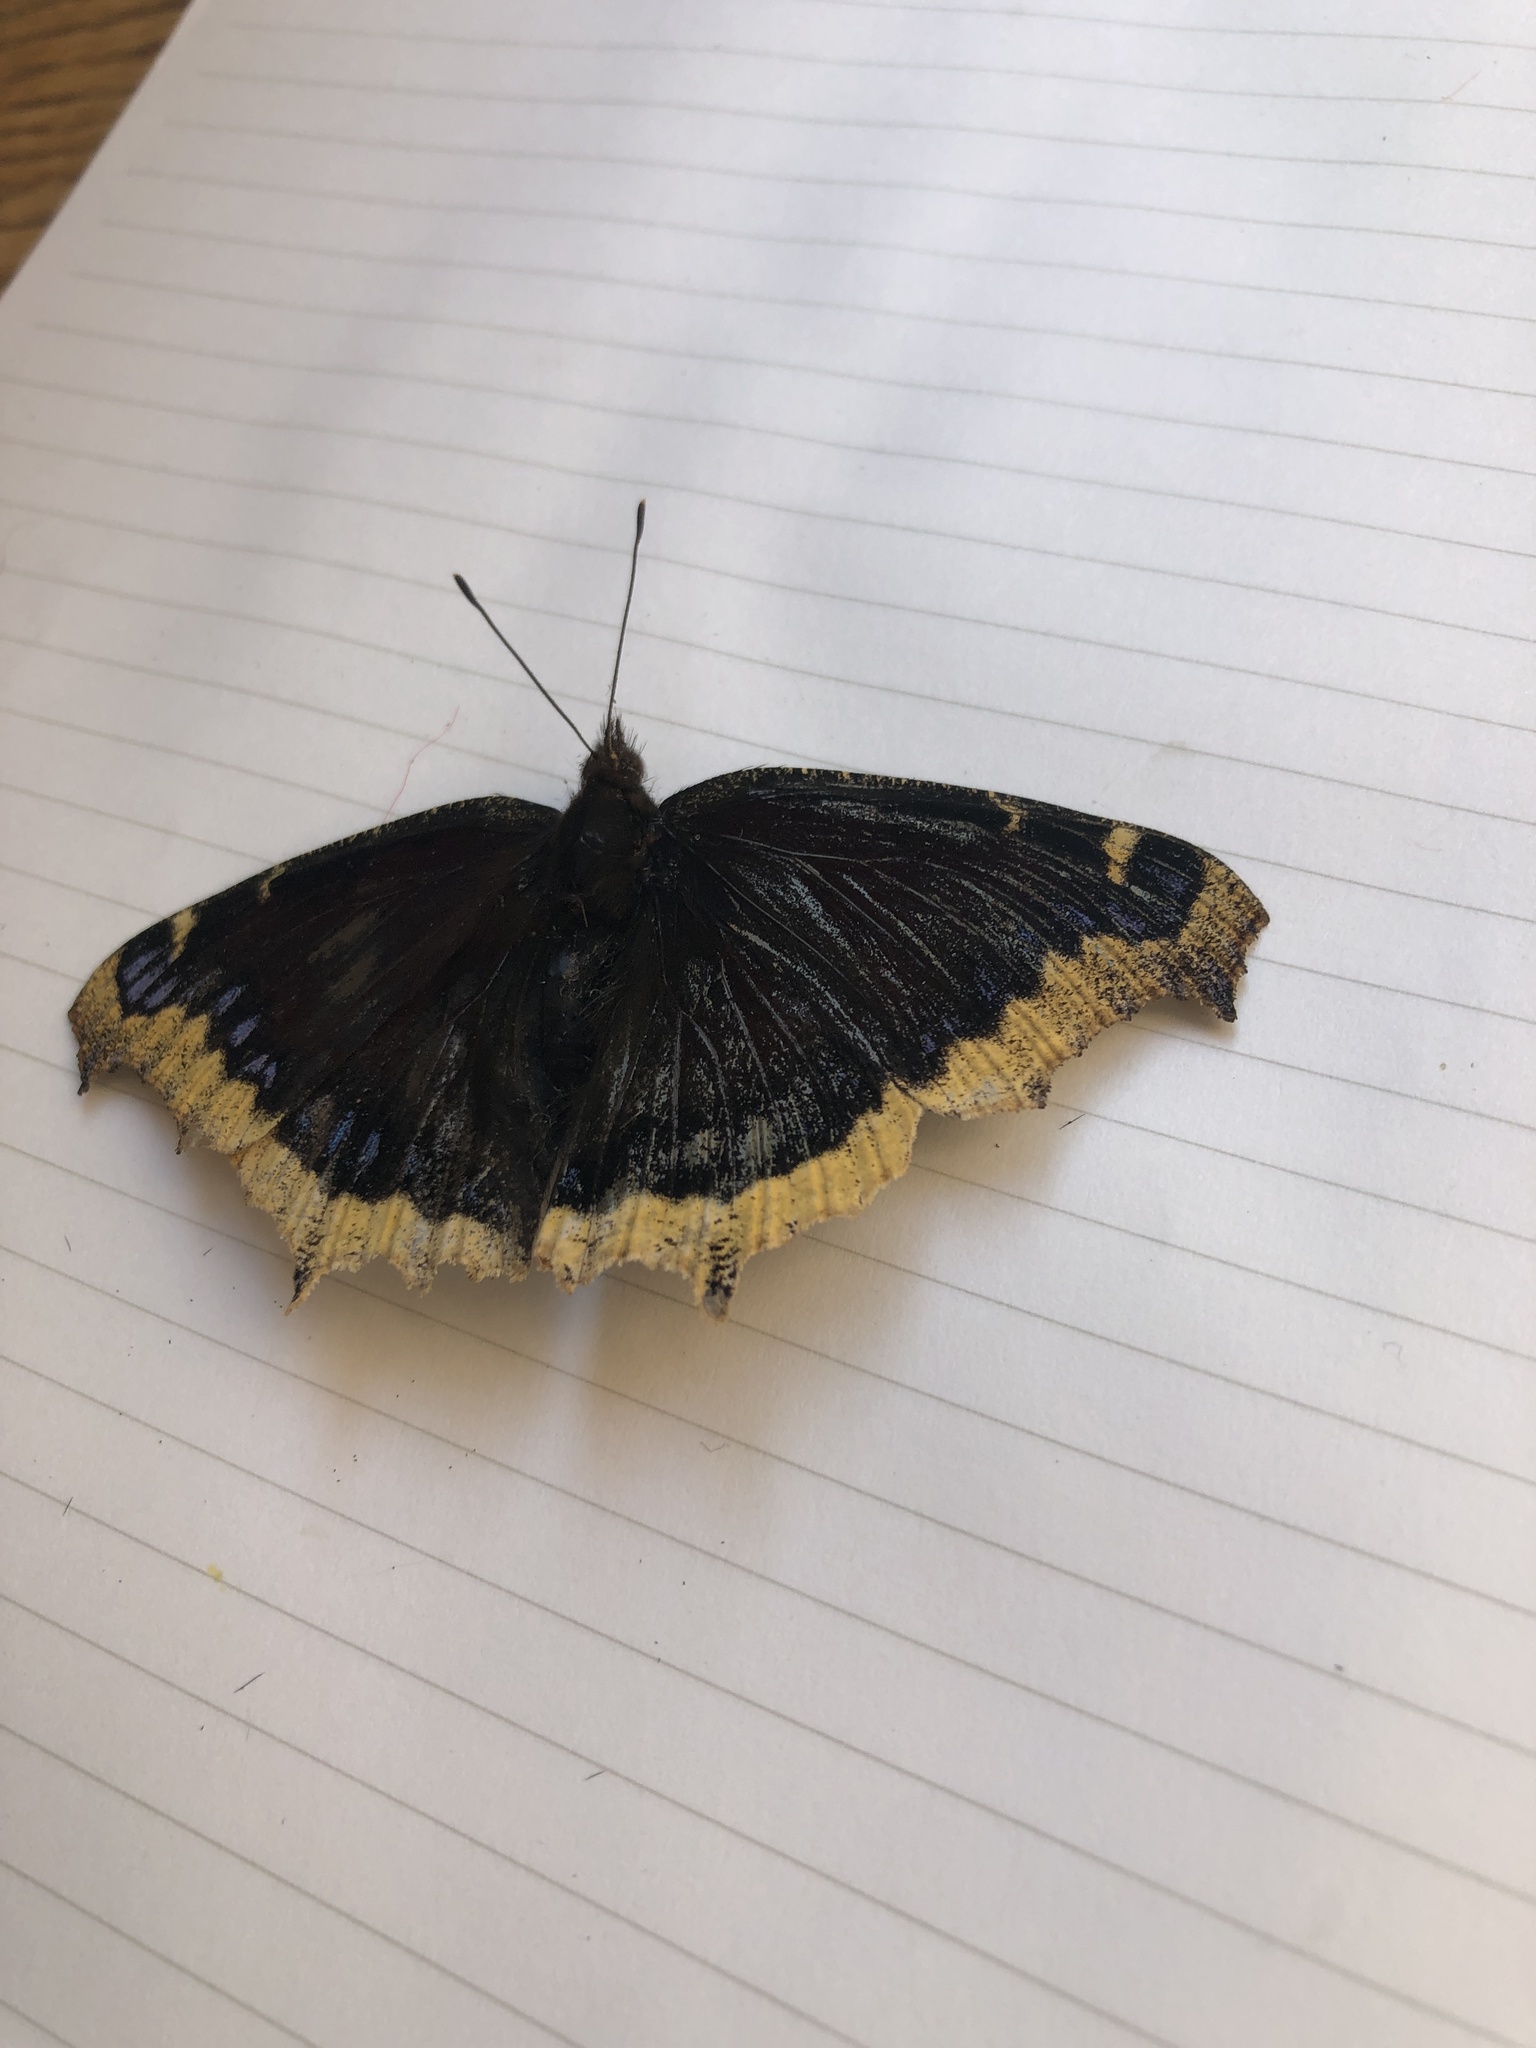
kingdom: Animalia
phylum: Arthropoda
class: Insecta
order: Lepidoptera
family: Nymphalidae
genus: Nymphalis
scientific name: Nymphalis antiopa
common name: Camberwell beauty
